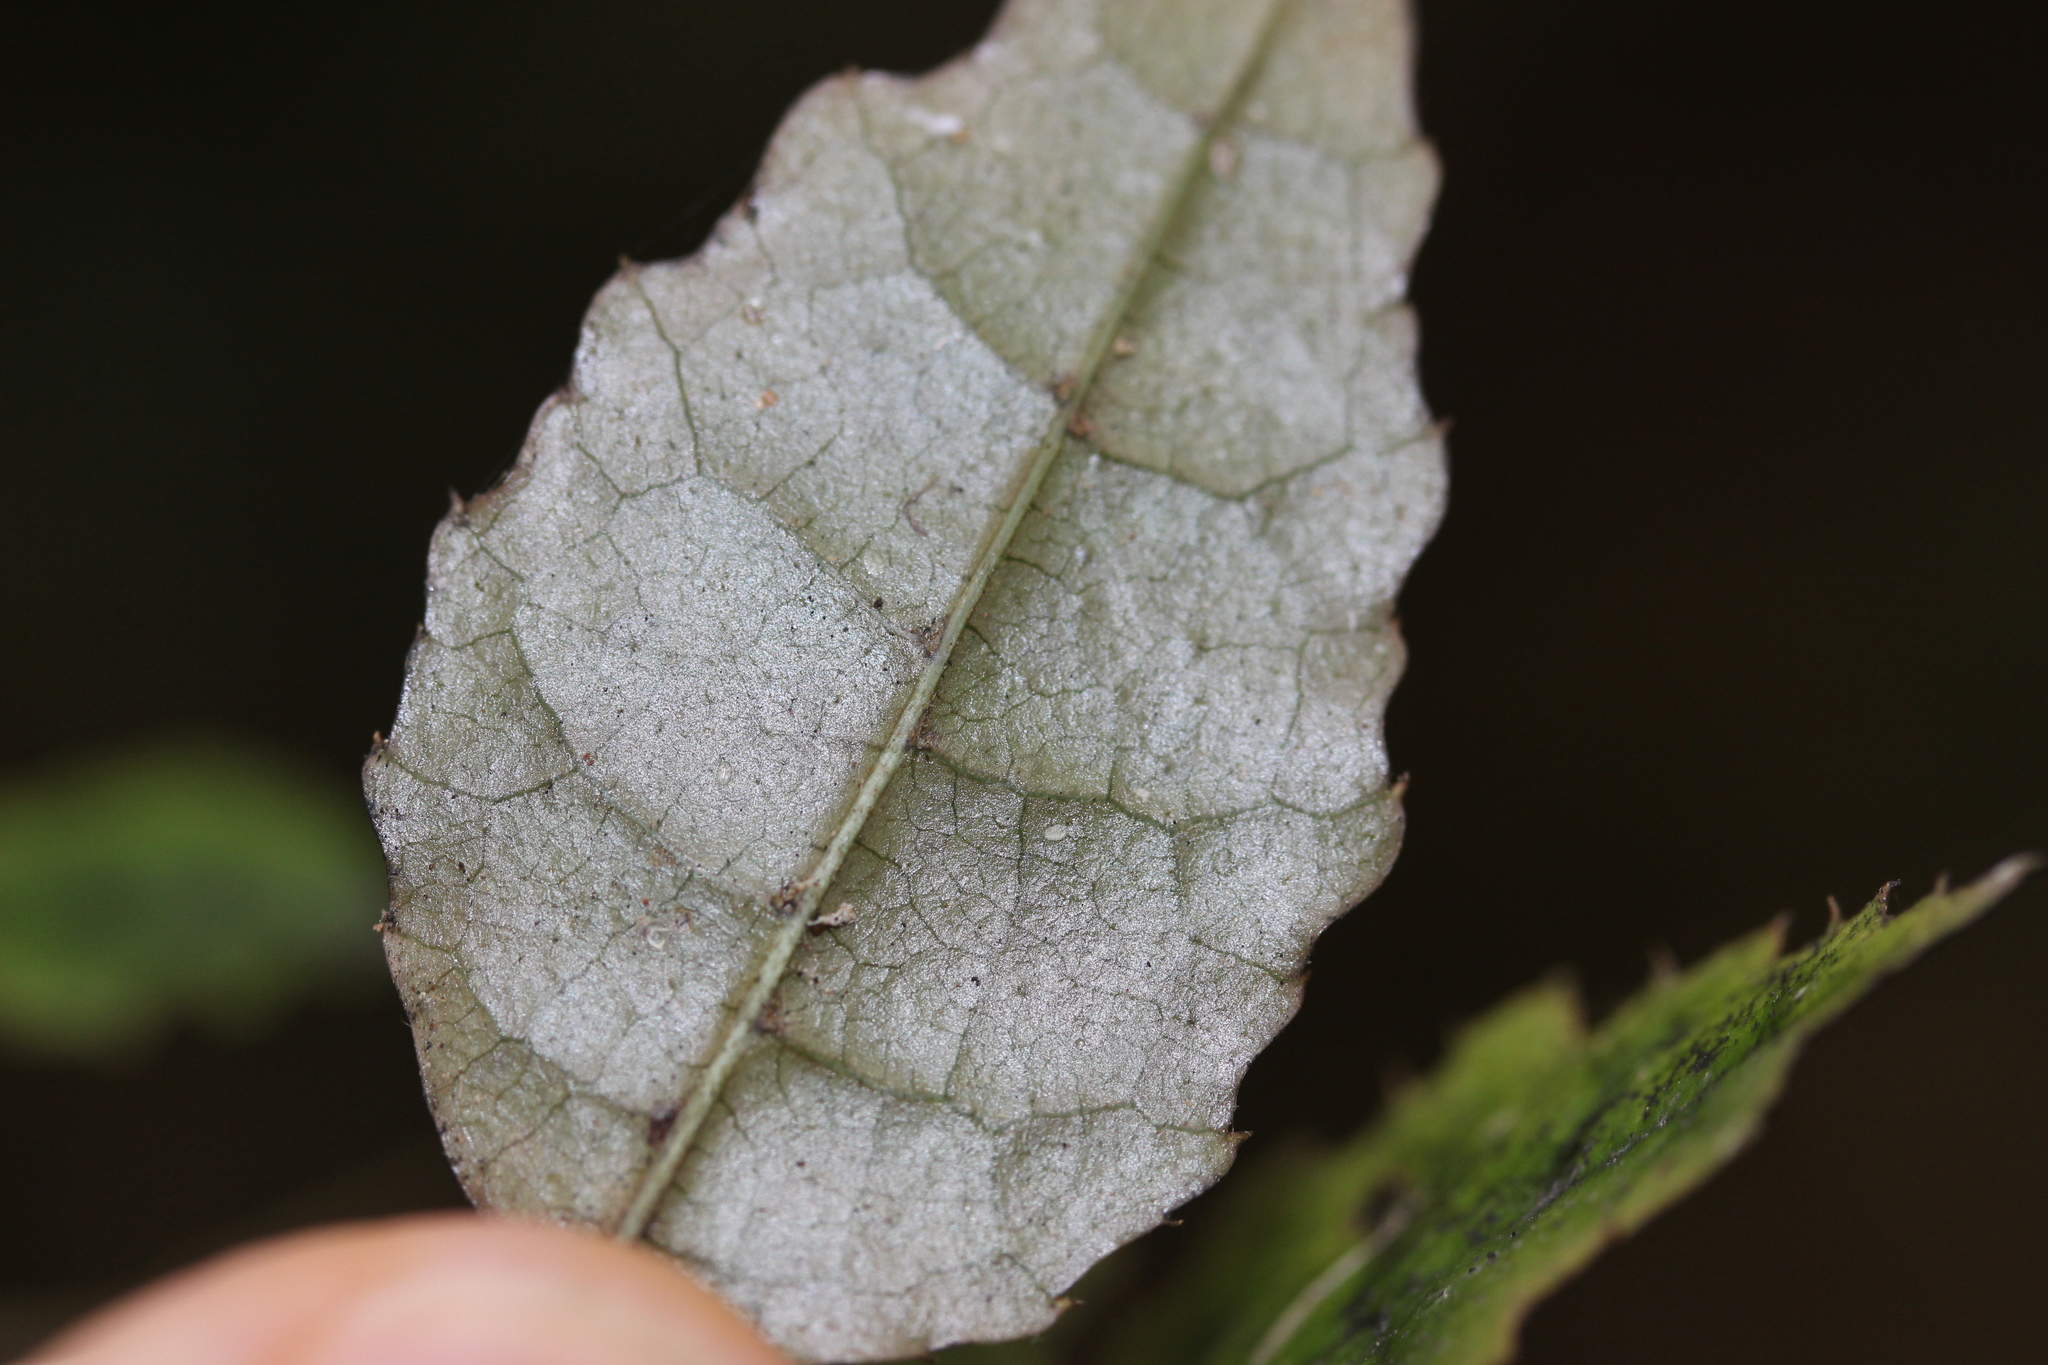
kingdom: Plantae
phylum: Tracheophyta
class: Magnoliopsida
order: Asterales
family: Rousseaceae
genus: Carpodetus
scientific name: Carpodetus serratus
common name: White mapau
